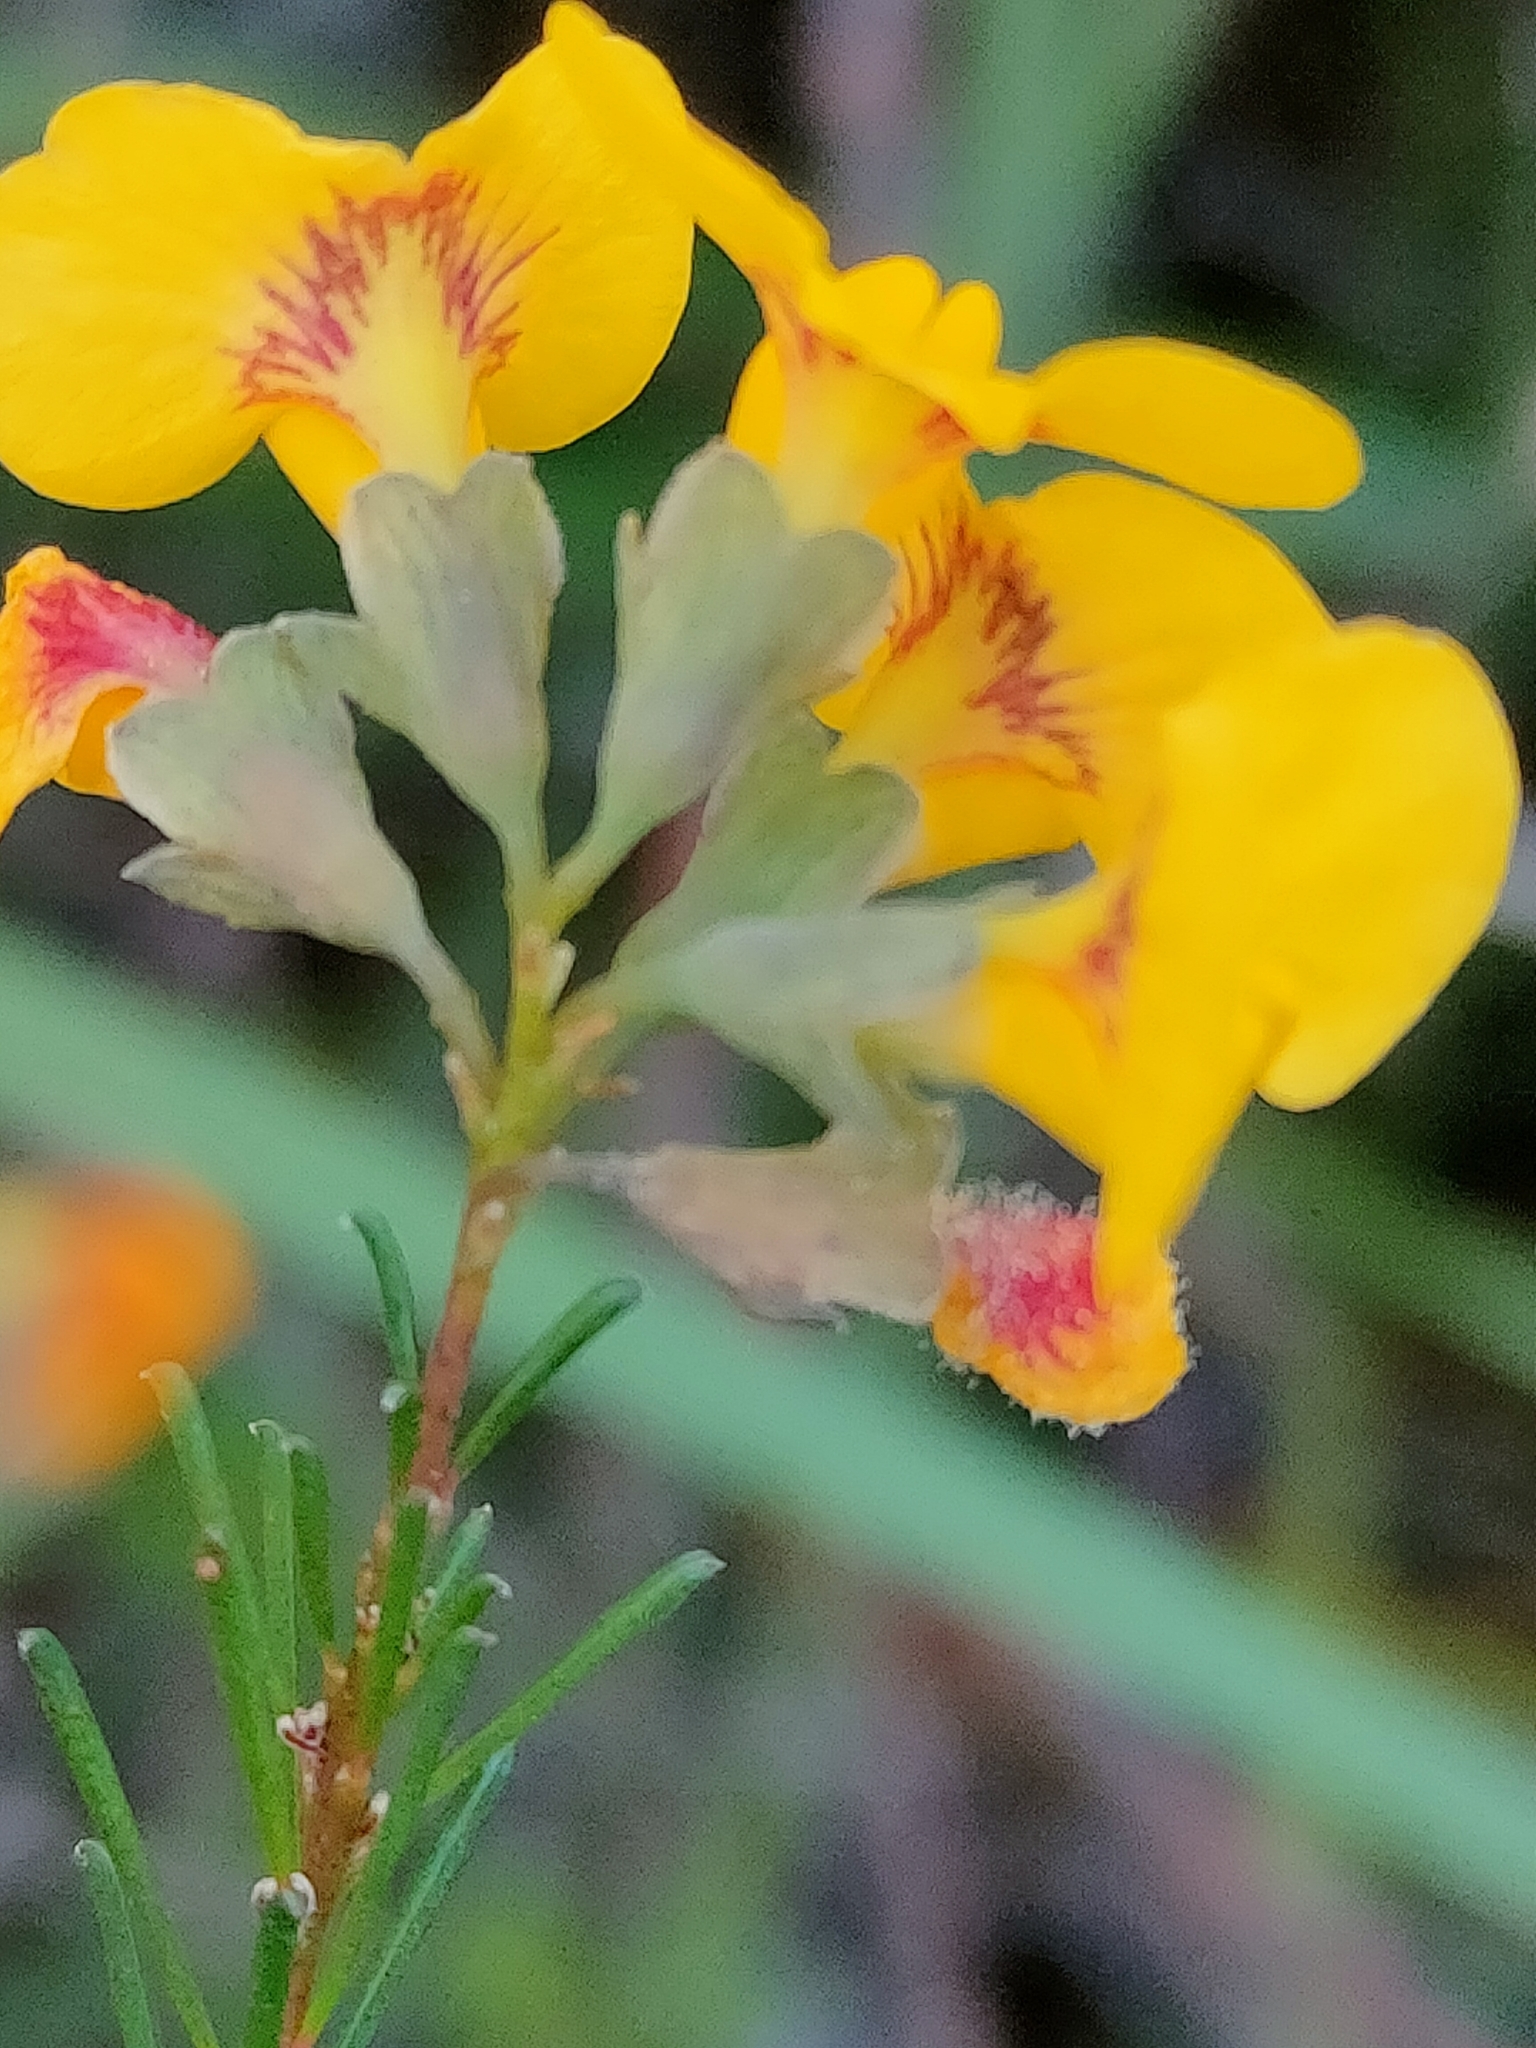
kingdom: Plantae
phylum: Tracheophyta
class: Magnoliopsida
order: Fabales
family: Fabaceae
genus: Dillwynia
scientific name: Dillwynia glaberrima
